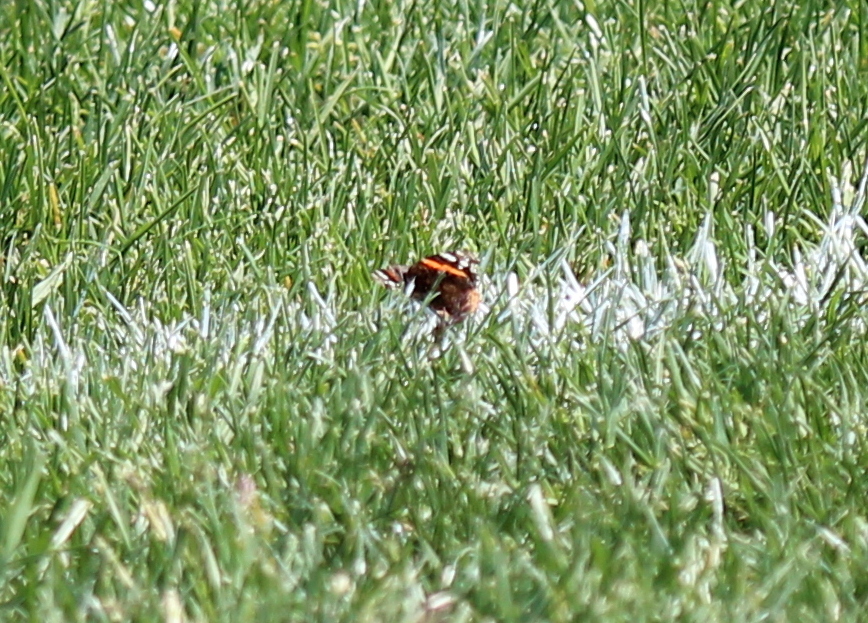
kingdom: Animalia
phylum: Arthropoda
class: Insecta
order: Lepidoptera
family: Nymphalidae
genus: Vanessa
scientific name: Vanessa atalanta
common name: Red admiral
